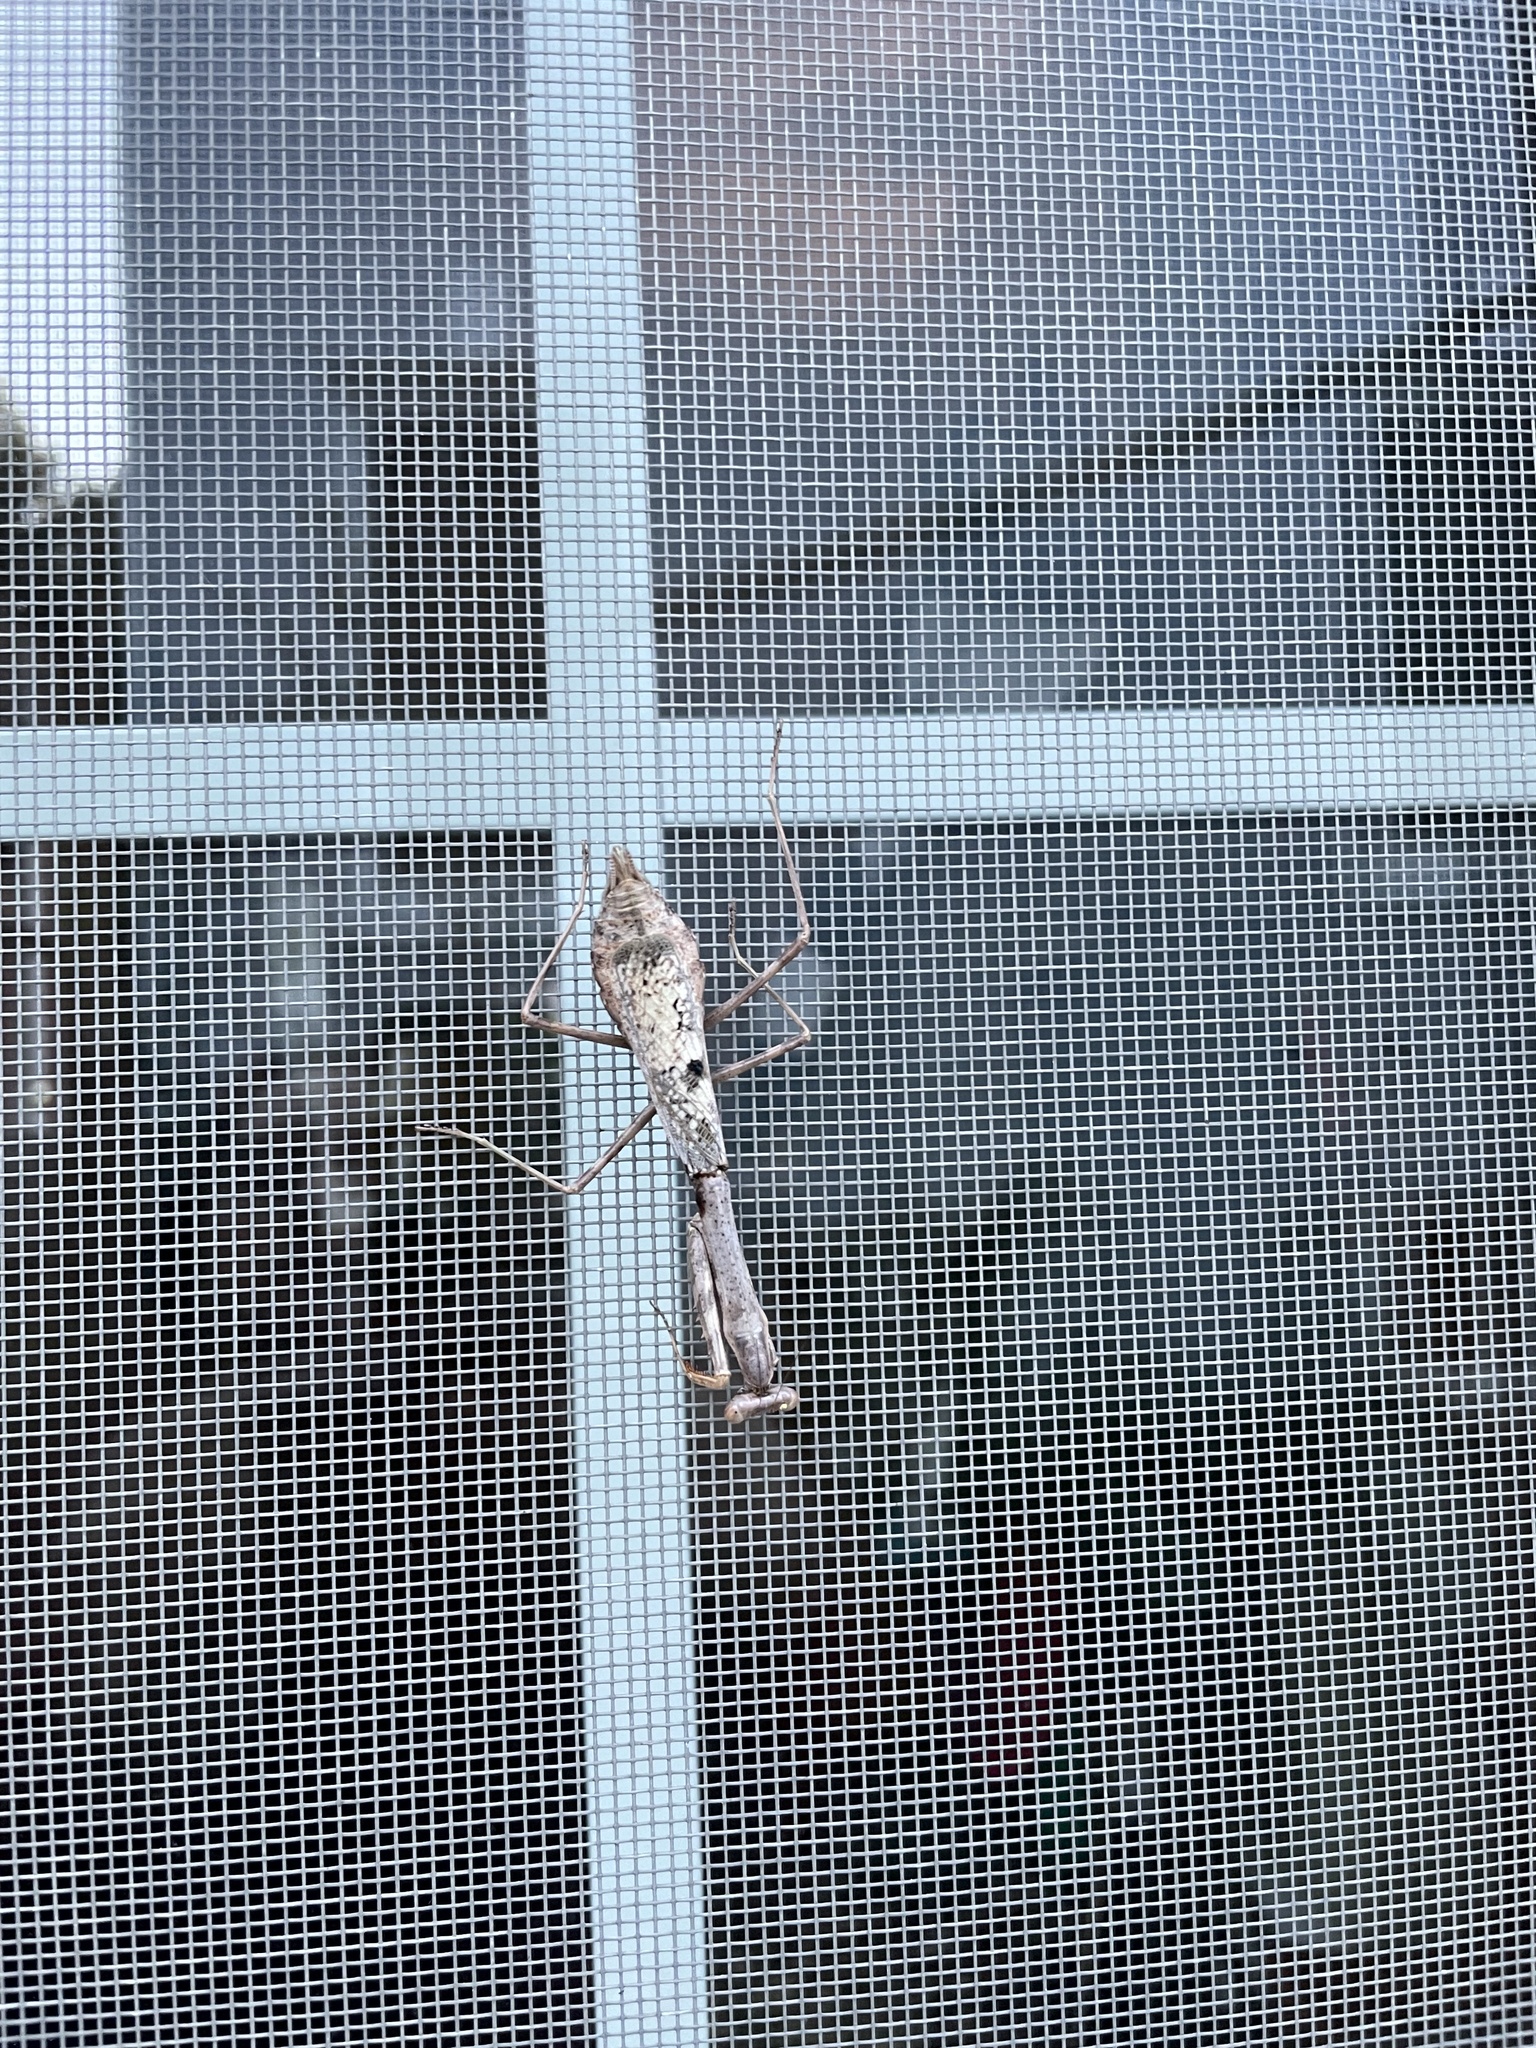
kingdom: Animalia
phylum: Arthropoda
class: Insecta
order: Mantodea
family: Mantidae
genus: Stagmomantis
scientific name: Stagmomantis carolina
